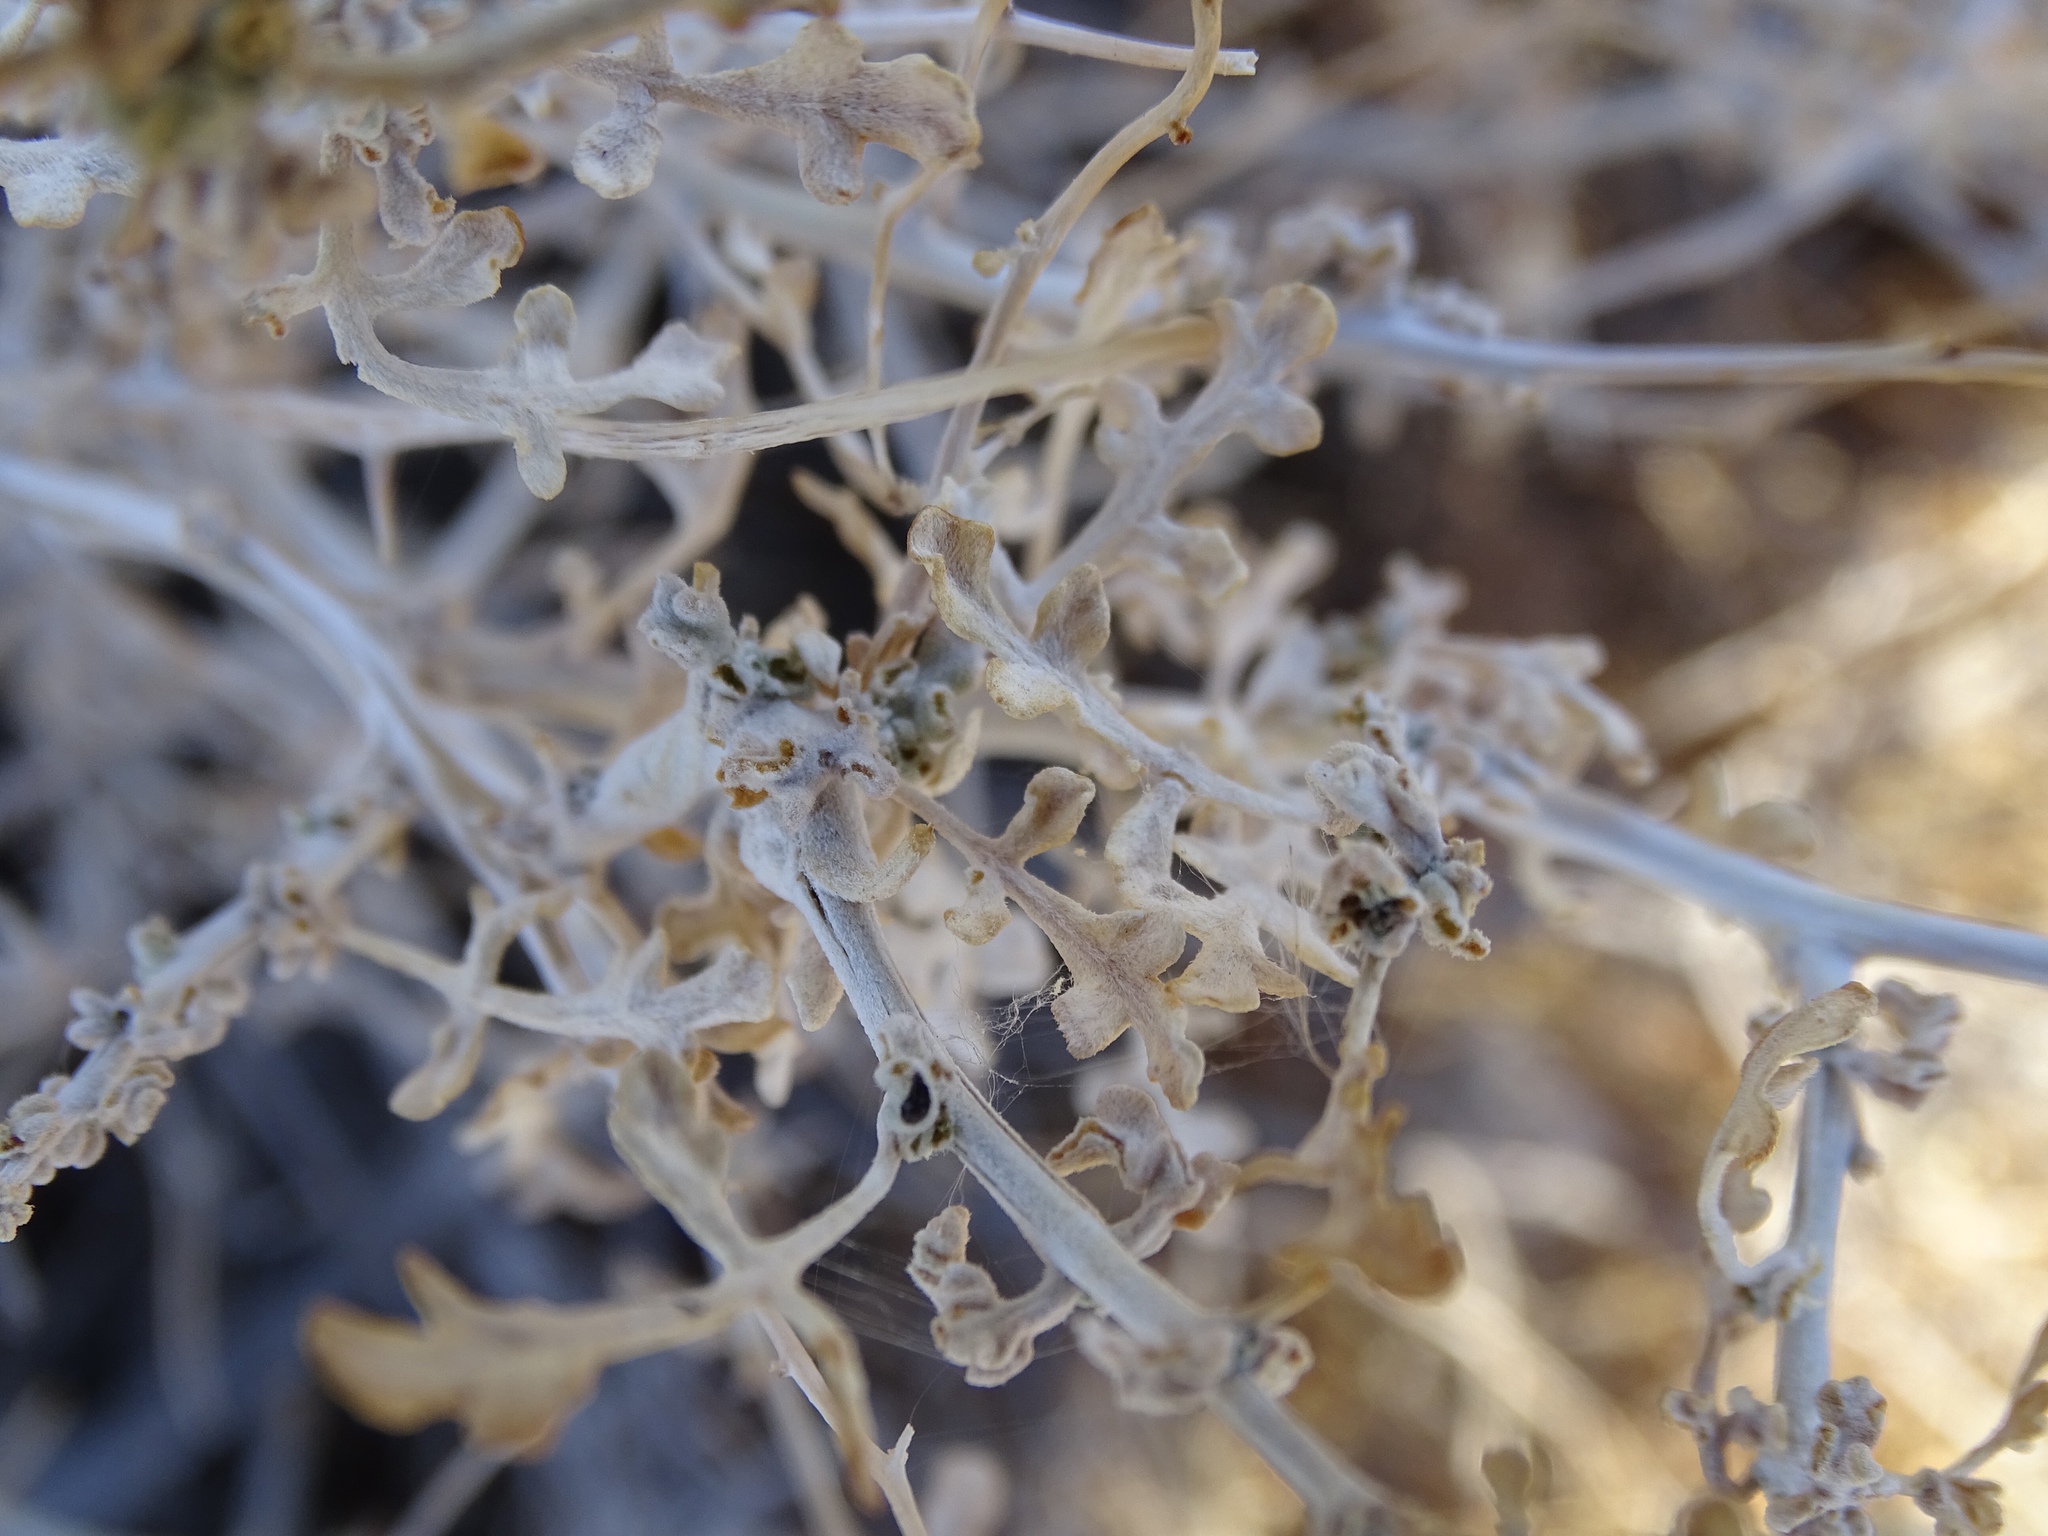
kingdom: Plantae
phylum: Tracheophyta
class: Magnoliopsida
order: Asterales
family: Asteraceae
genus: Ambrosia
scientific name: Ambrosia dumosa
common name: Bur-sage
